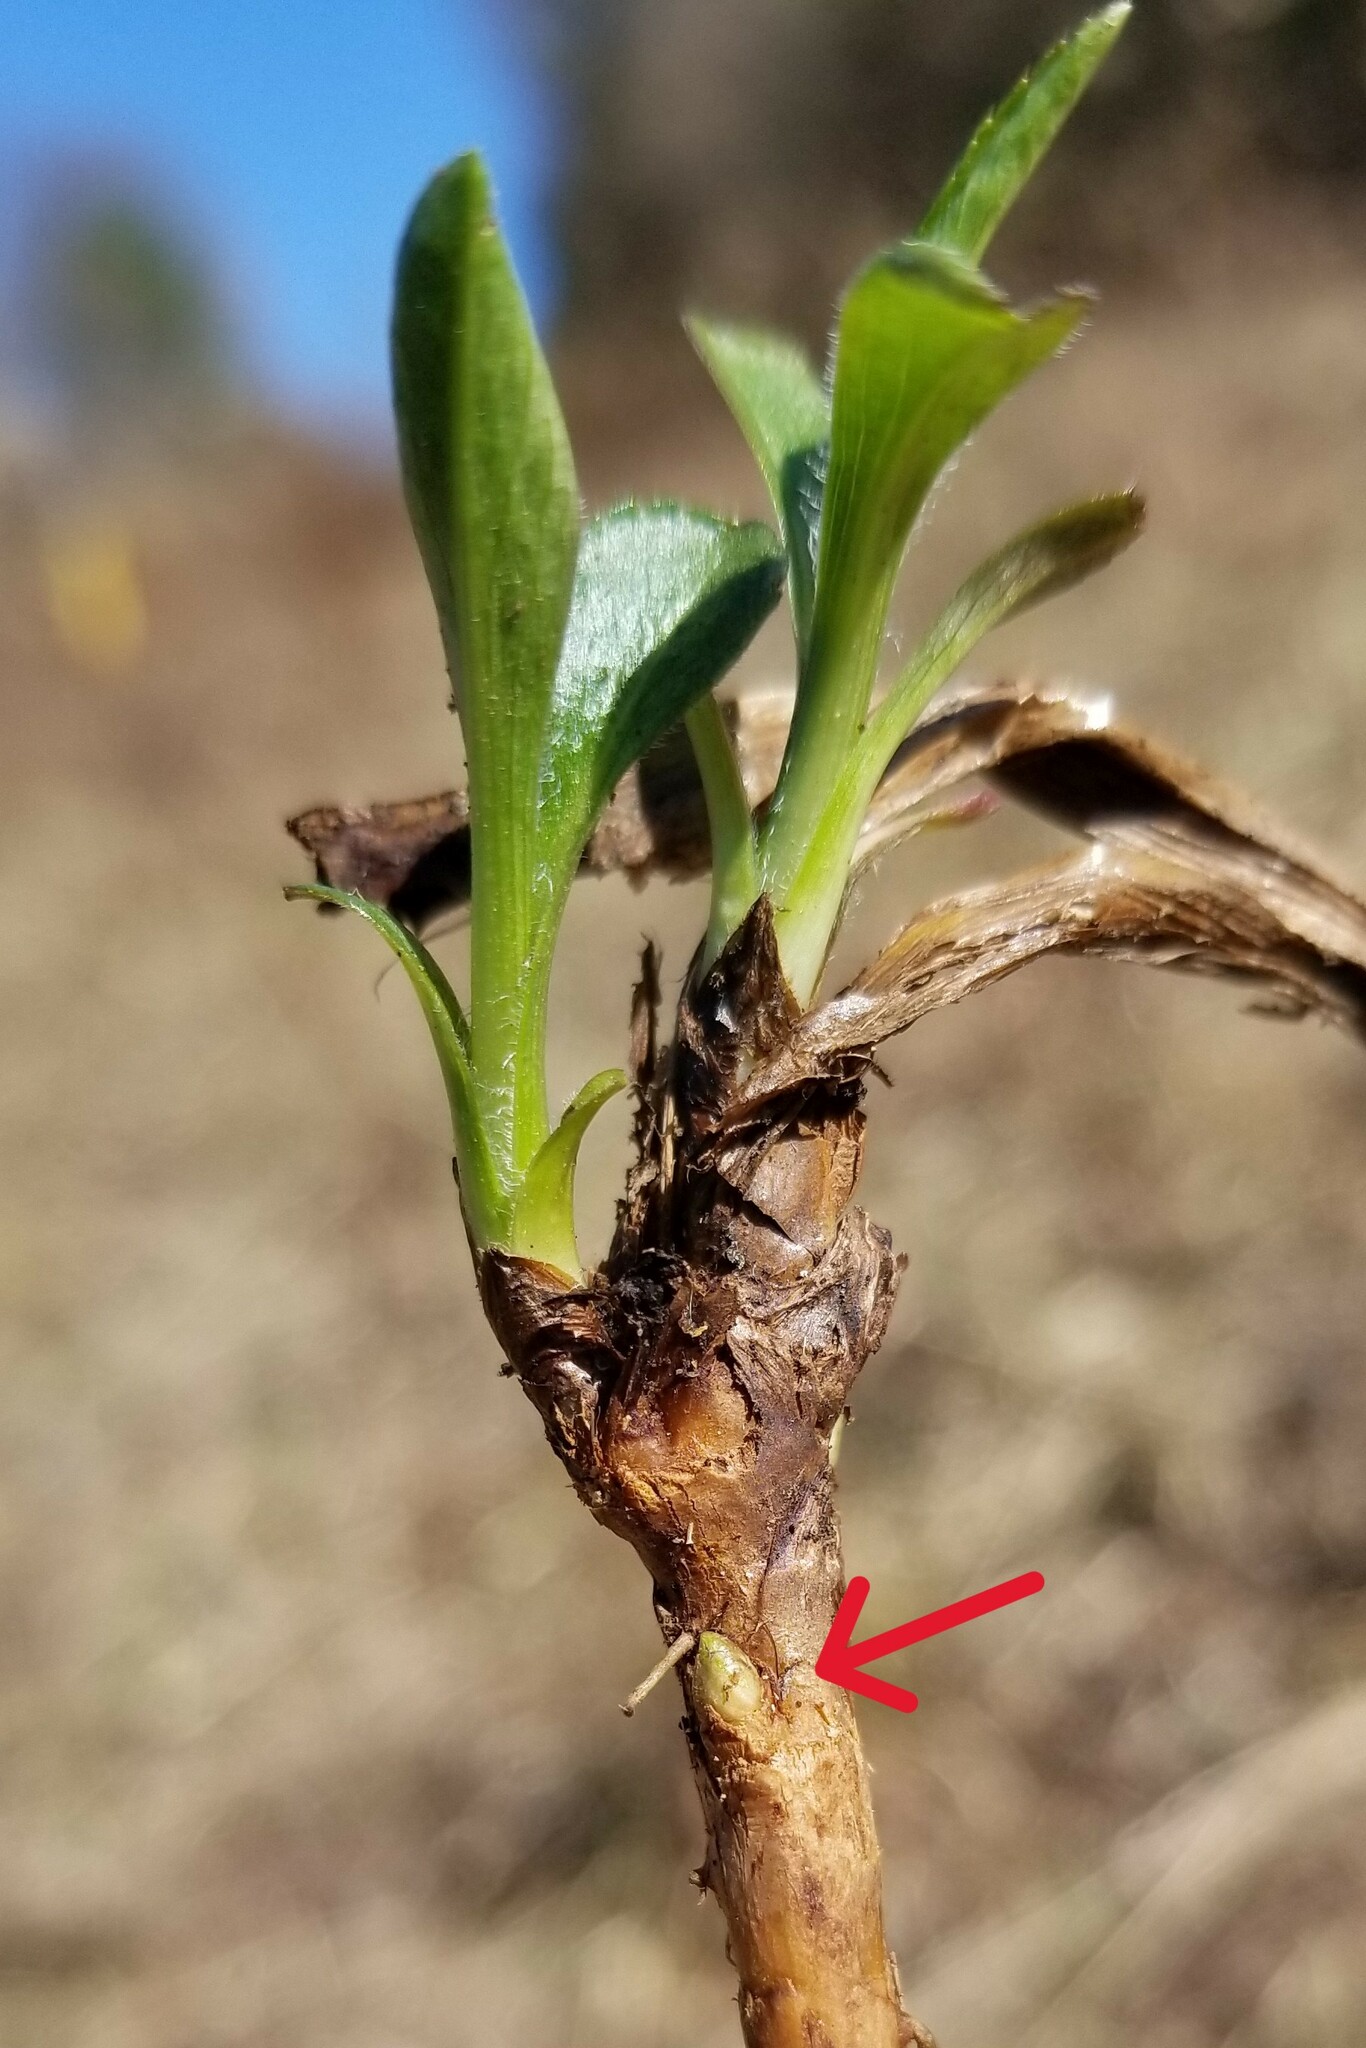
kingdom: Animalia
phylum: Arthropoda
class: Insecta
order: Diptera
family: Cecidomyiidae
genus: Rhopalomyia
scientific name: Rhopalomyia bulbula
